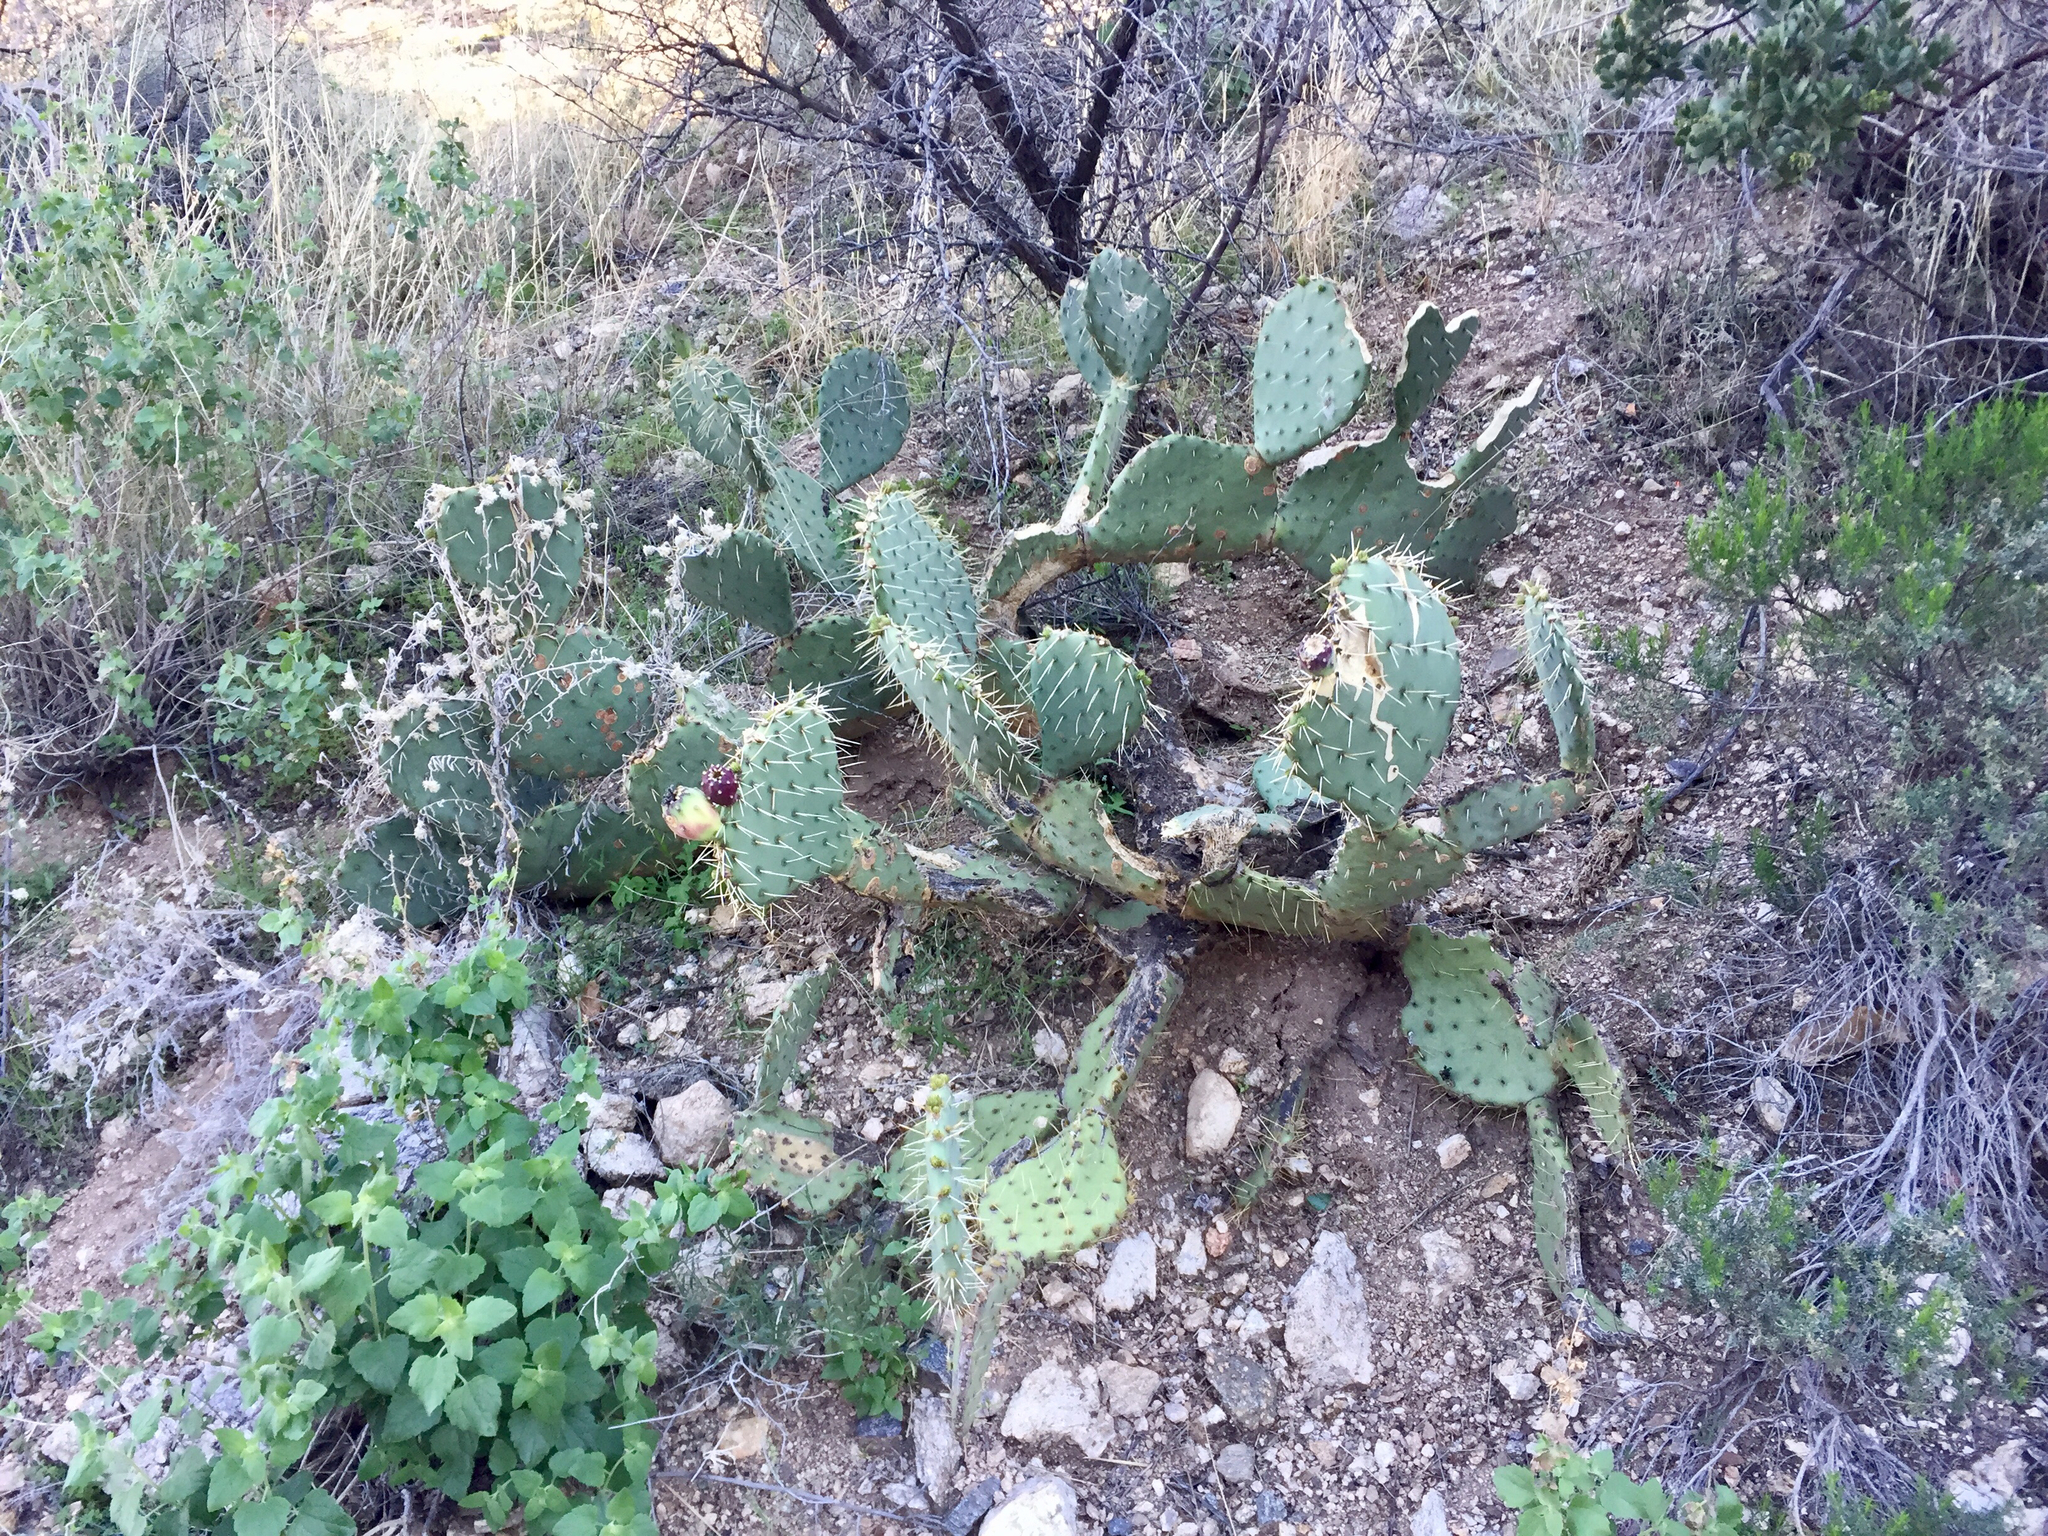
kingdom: Plantae
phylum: Tracheophyta
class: Magnoliopsida
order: Caryophyllales
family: Cactaceae
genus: Opuntia
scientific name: Opuntia engelmannii
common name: Cactus-apple
